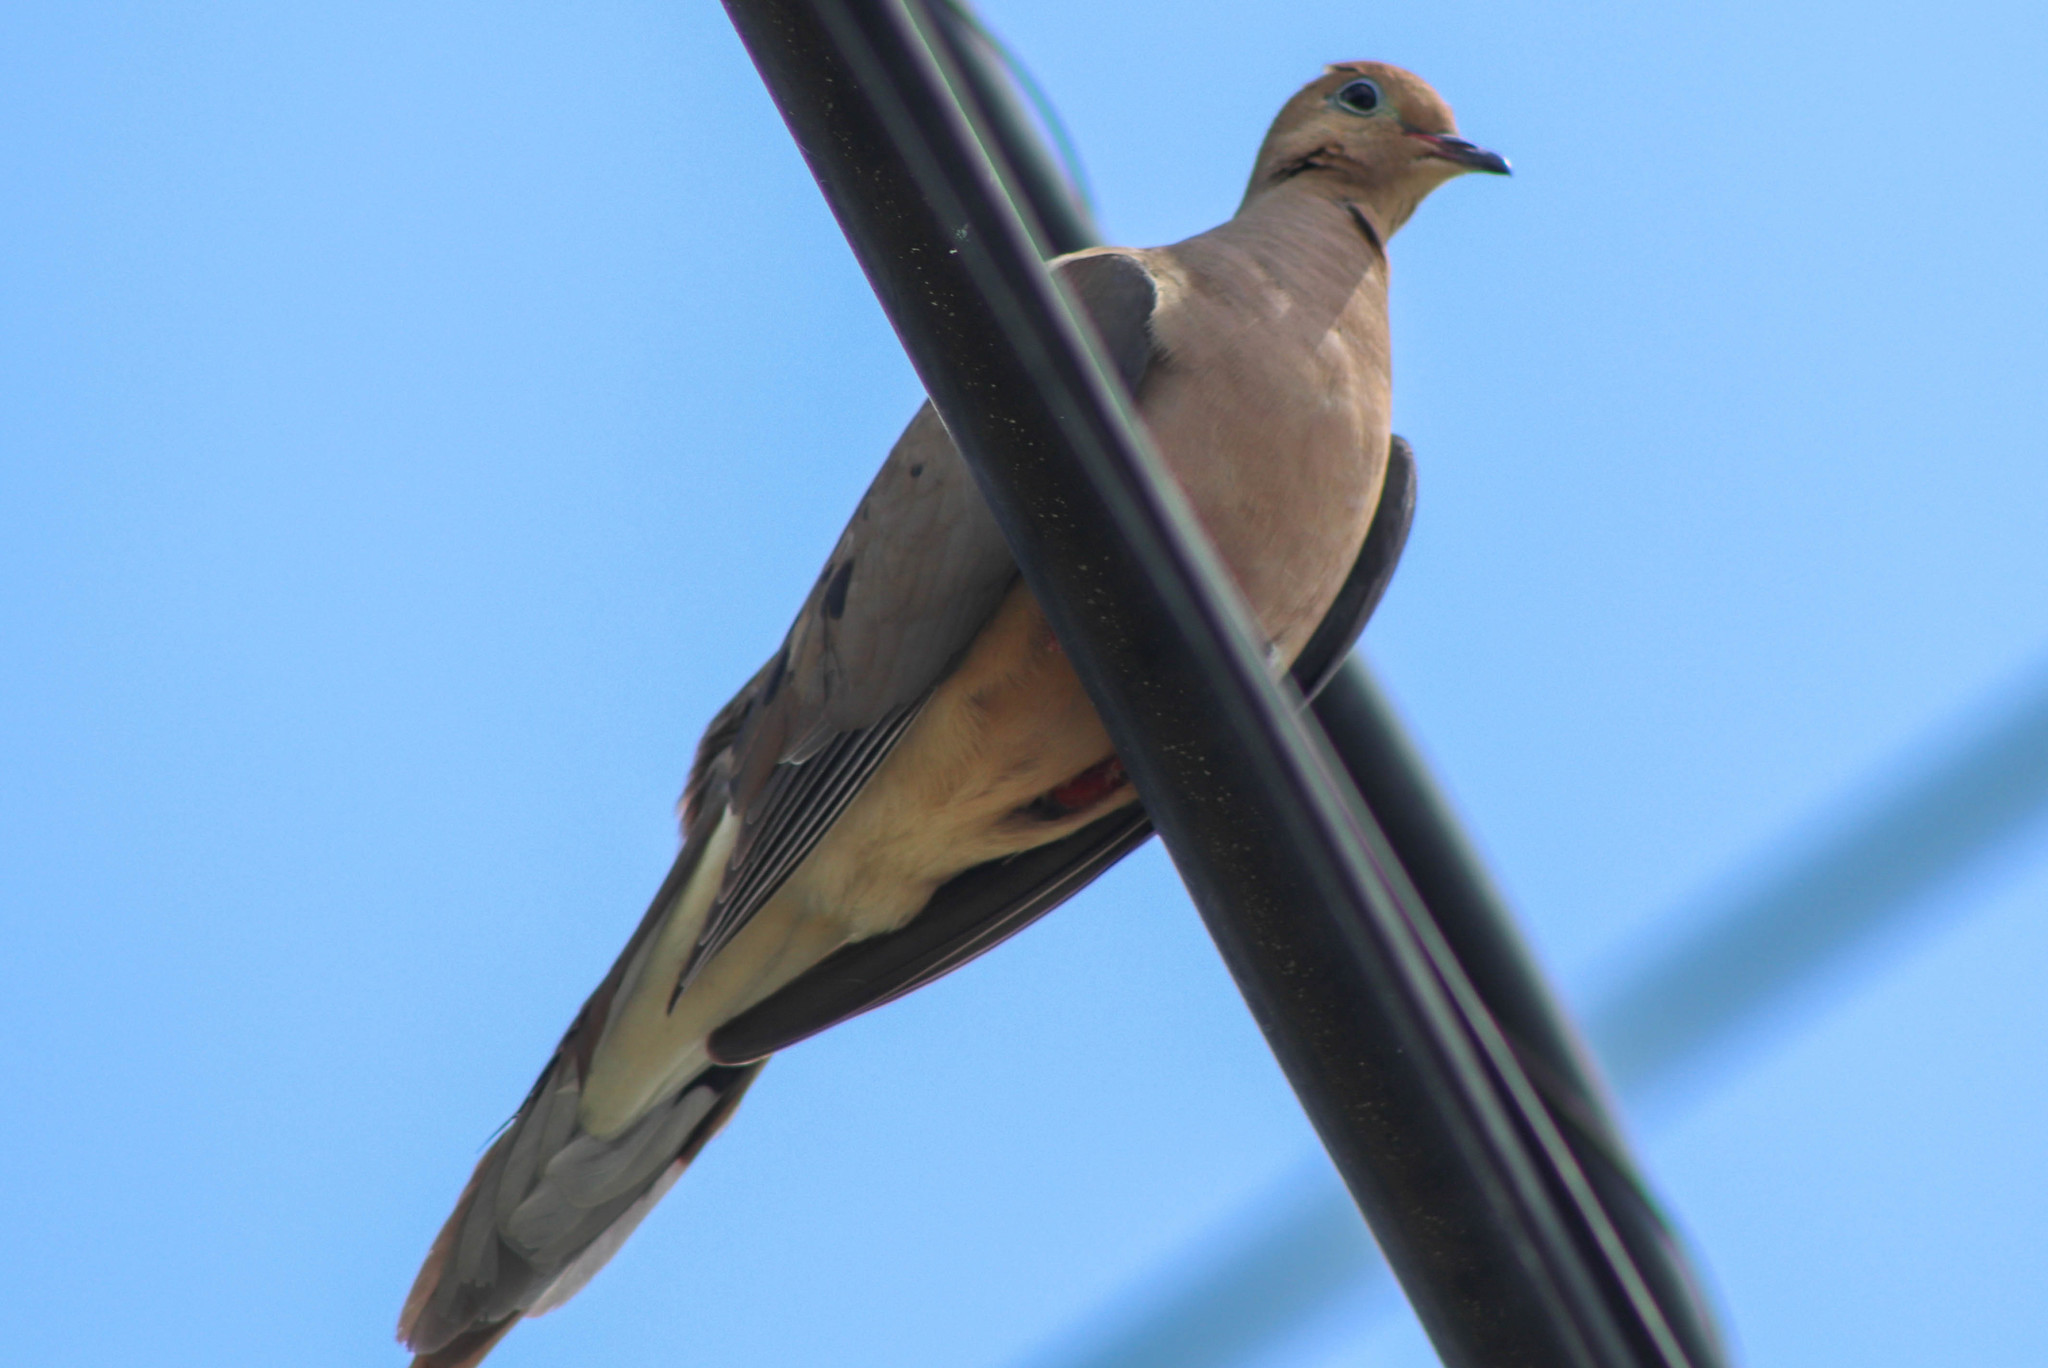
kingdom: Animalia
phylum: Chordata
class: Aves
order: Columbiformes
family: Columbidae
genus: Zenaida
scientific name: Zenaida macroura
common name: Mourning dove
